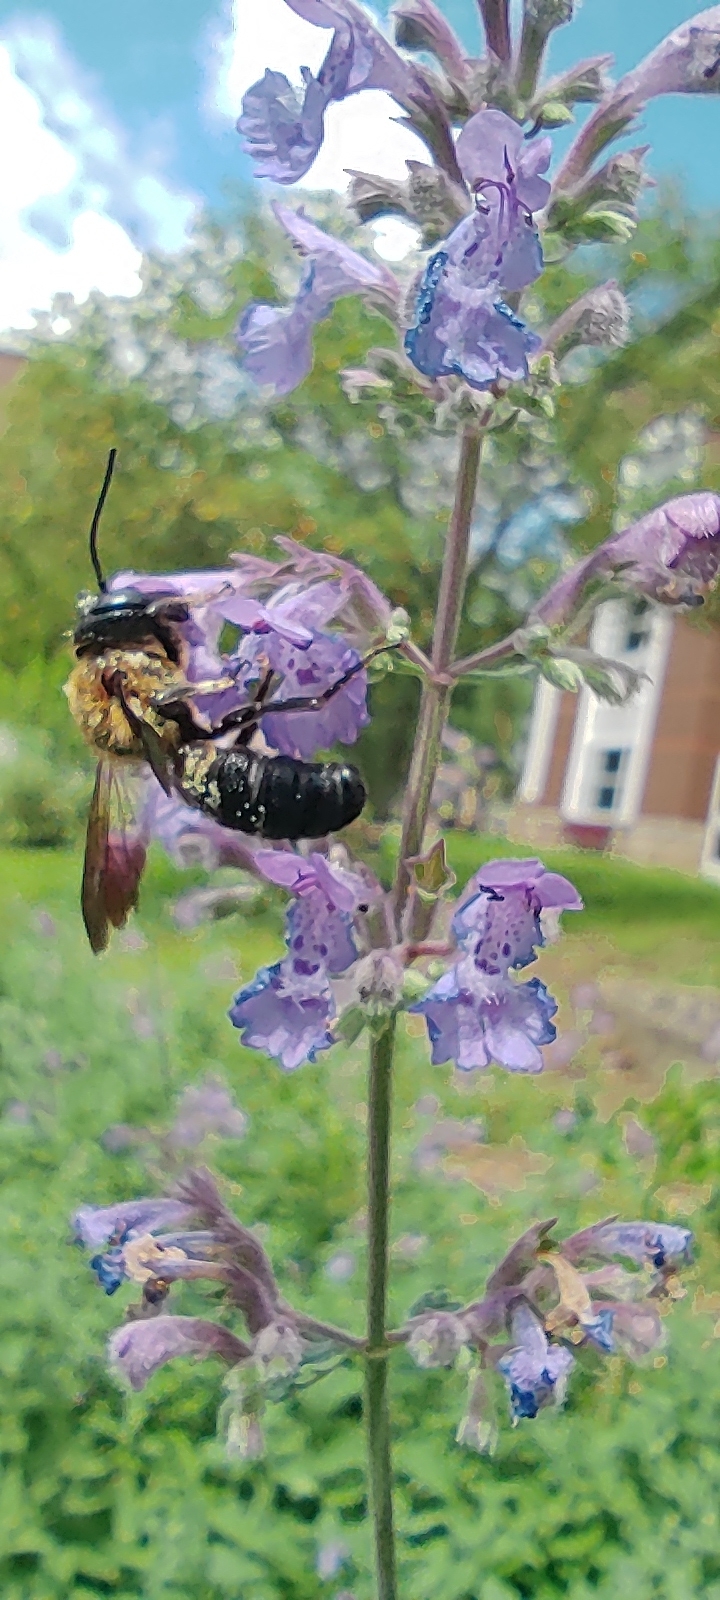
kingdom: Animalia
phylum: Arthropoda
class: Insecta
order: Hymenoptera
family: Megachilidae
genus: Megachile
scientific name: Megachile sculpturalis
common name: Sculptured resin bee
